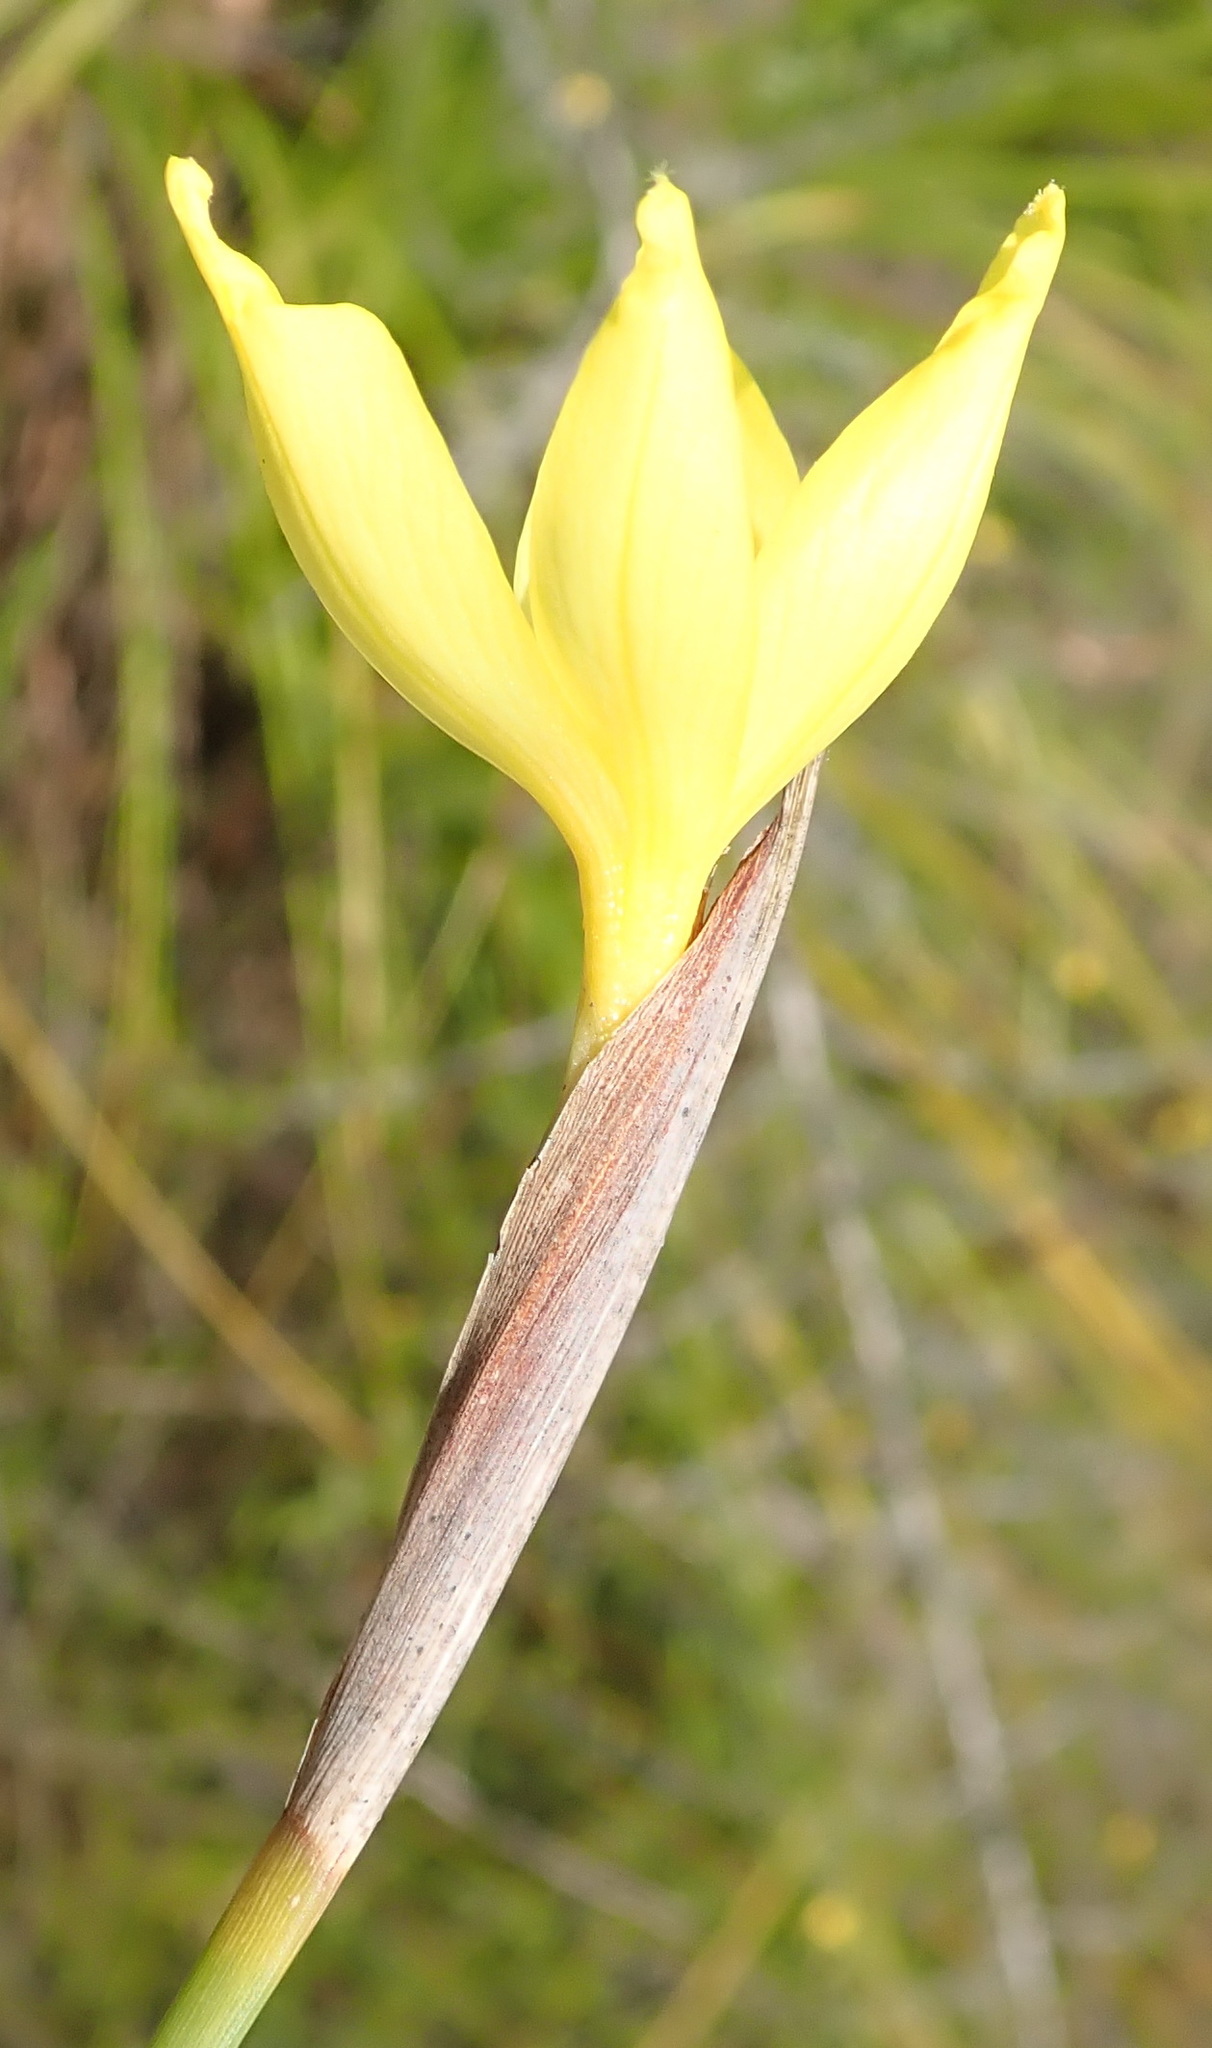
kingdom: Plantae
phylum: Tracheophyta
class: Liliopsida
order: Asparagales
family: Iridaceae
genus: Bobartia
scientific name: Bobartia macrospatha
